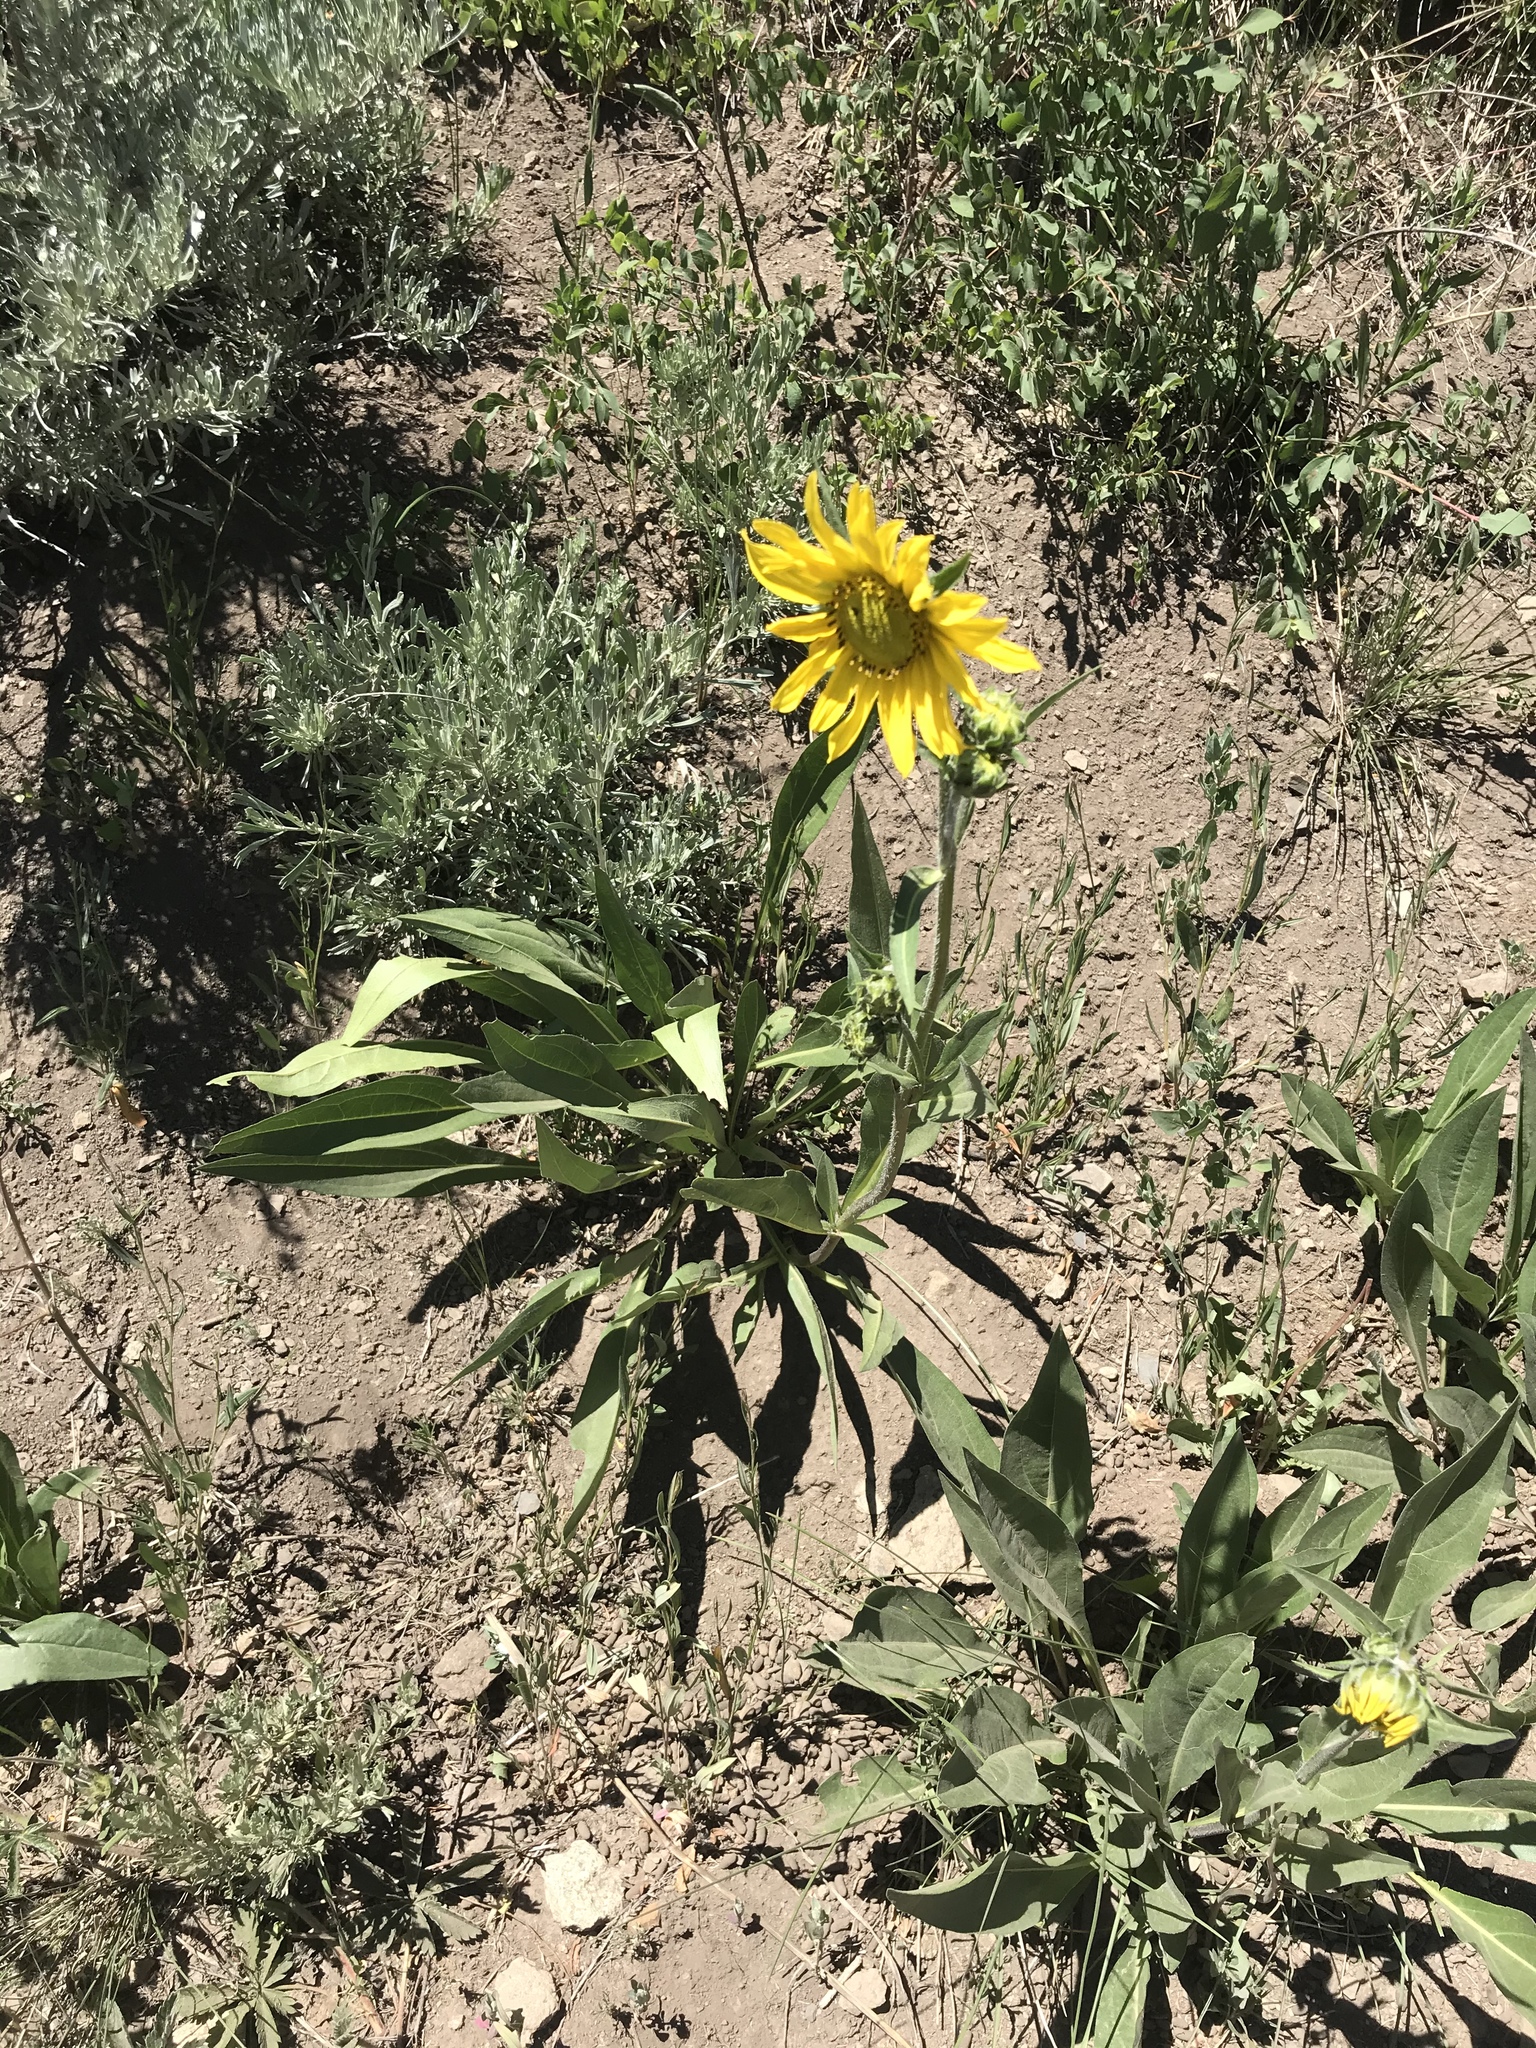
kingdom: Plantae
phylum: Tracheophyta
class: Magnoliopsida
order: Asterales
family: Asteraceae
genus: Helianthella
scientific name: Helianthella quinquenervis
